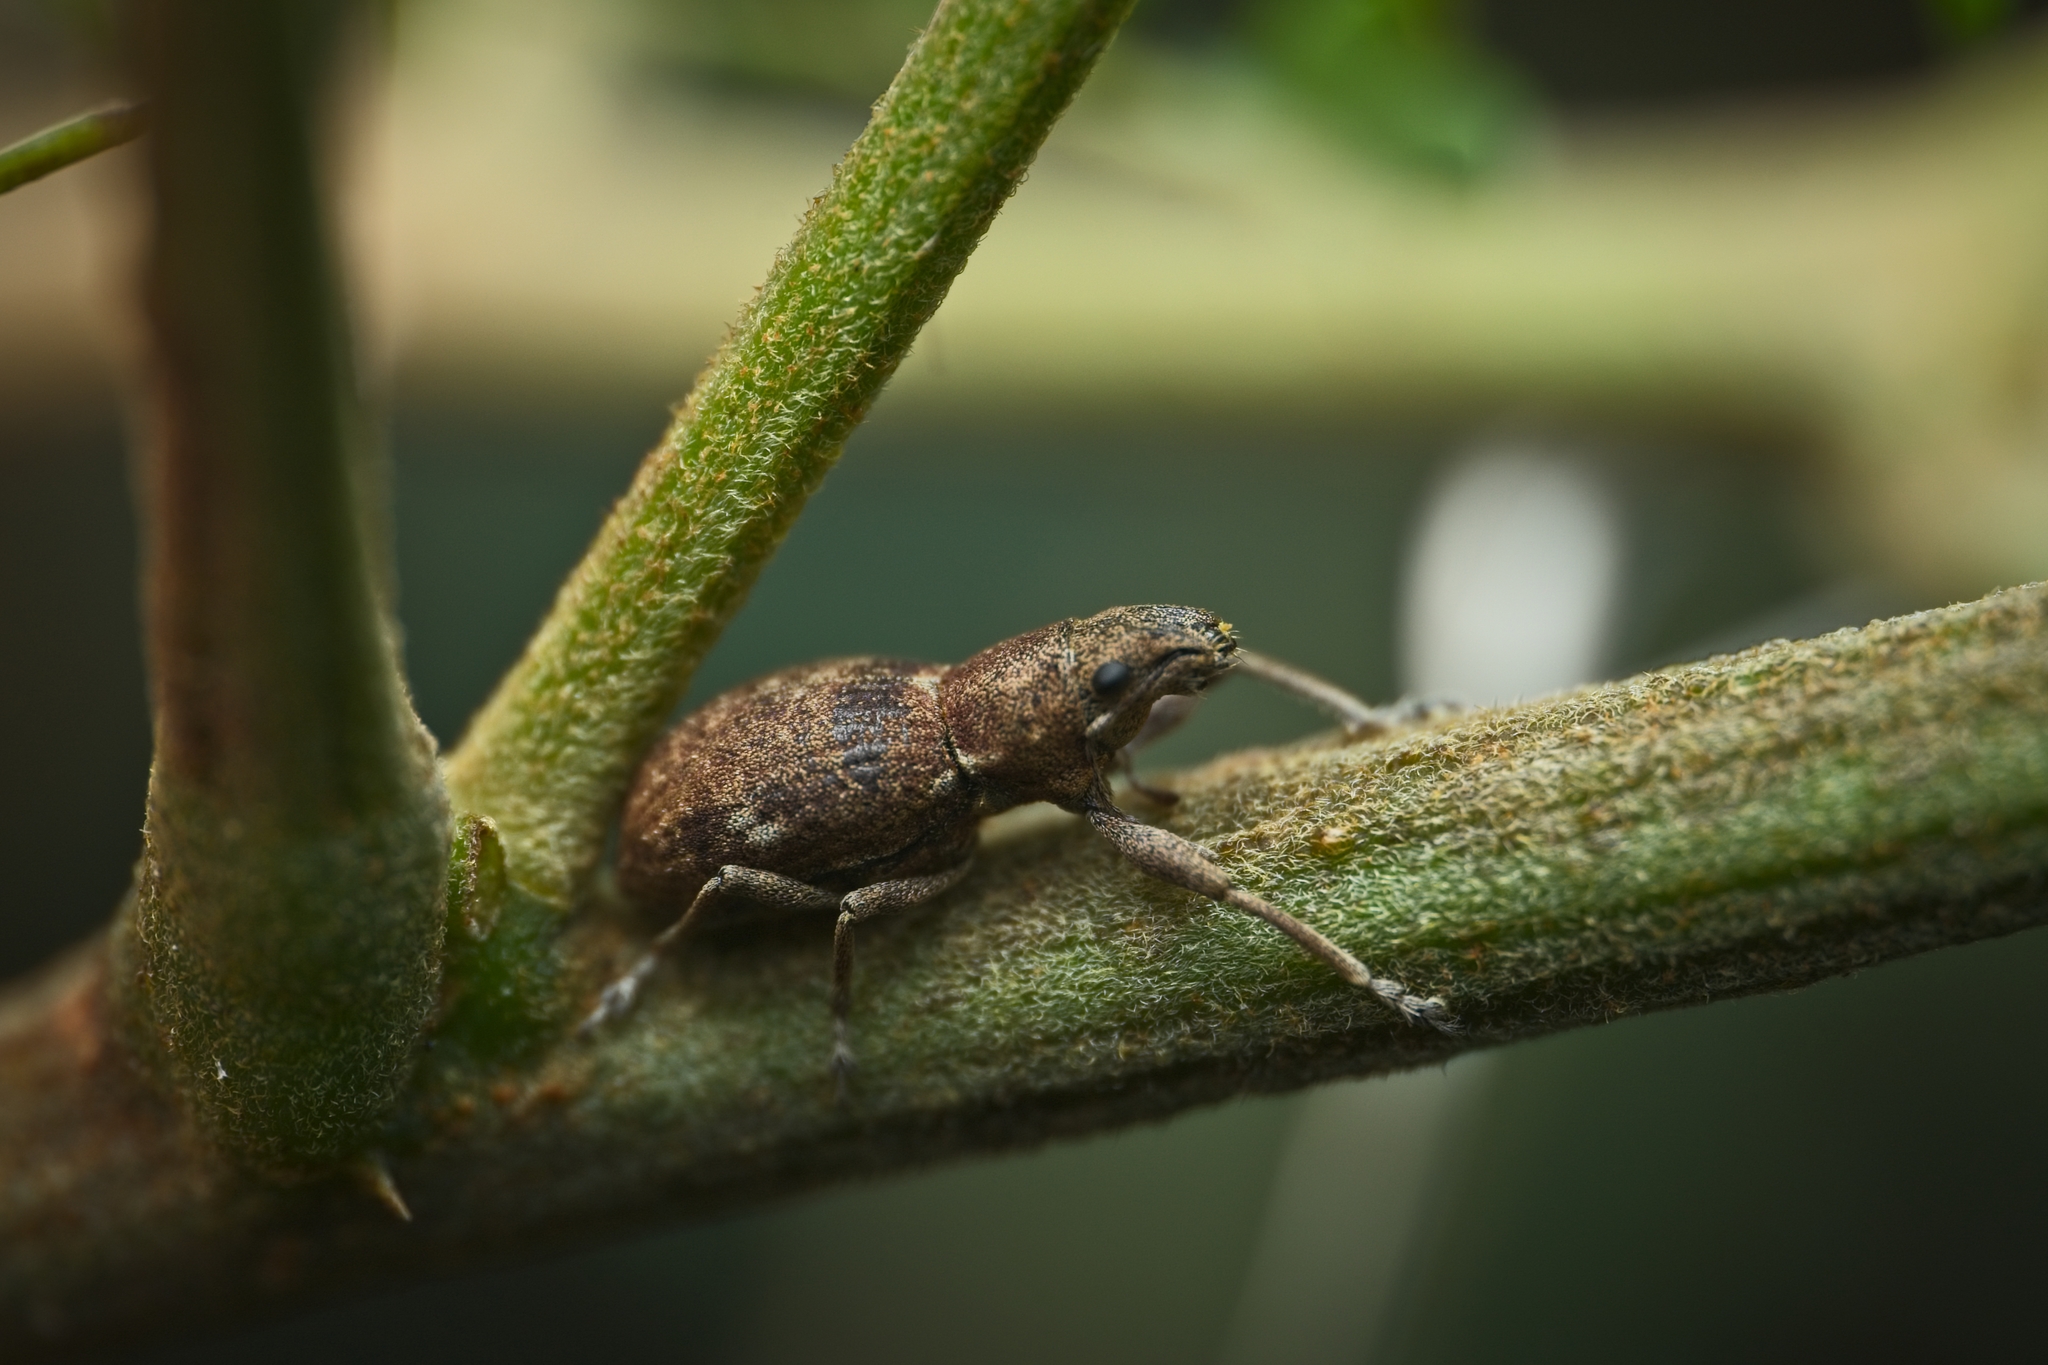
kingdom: Animalia
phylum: Arthropoda
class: Insecta
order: Coleoptera
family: Curculionidae
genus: Naupactus
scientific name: Naupactus cervinus
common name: Fuller rose beetle
